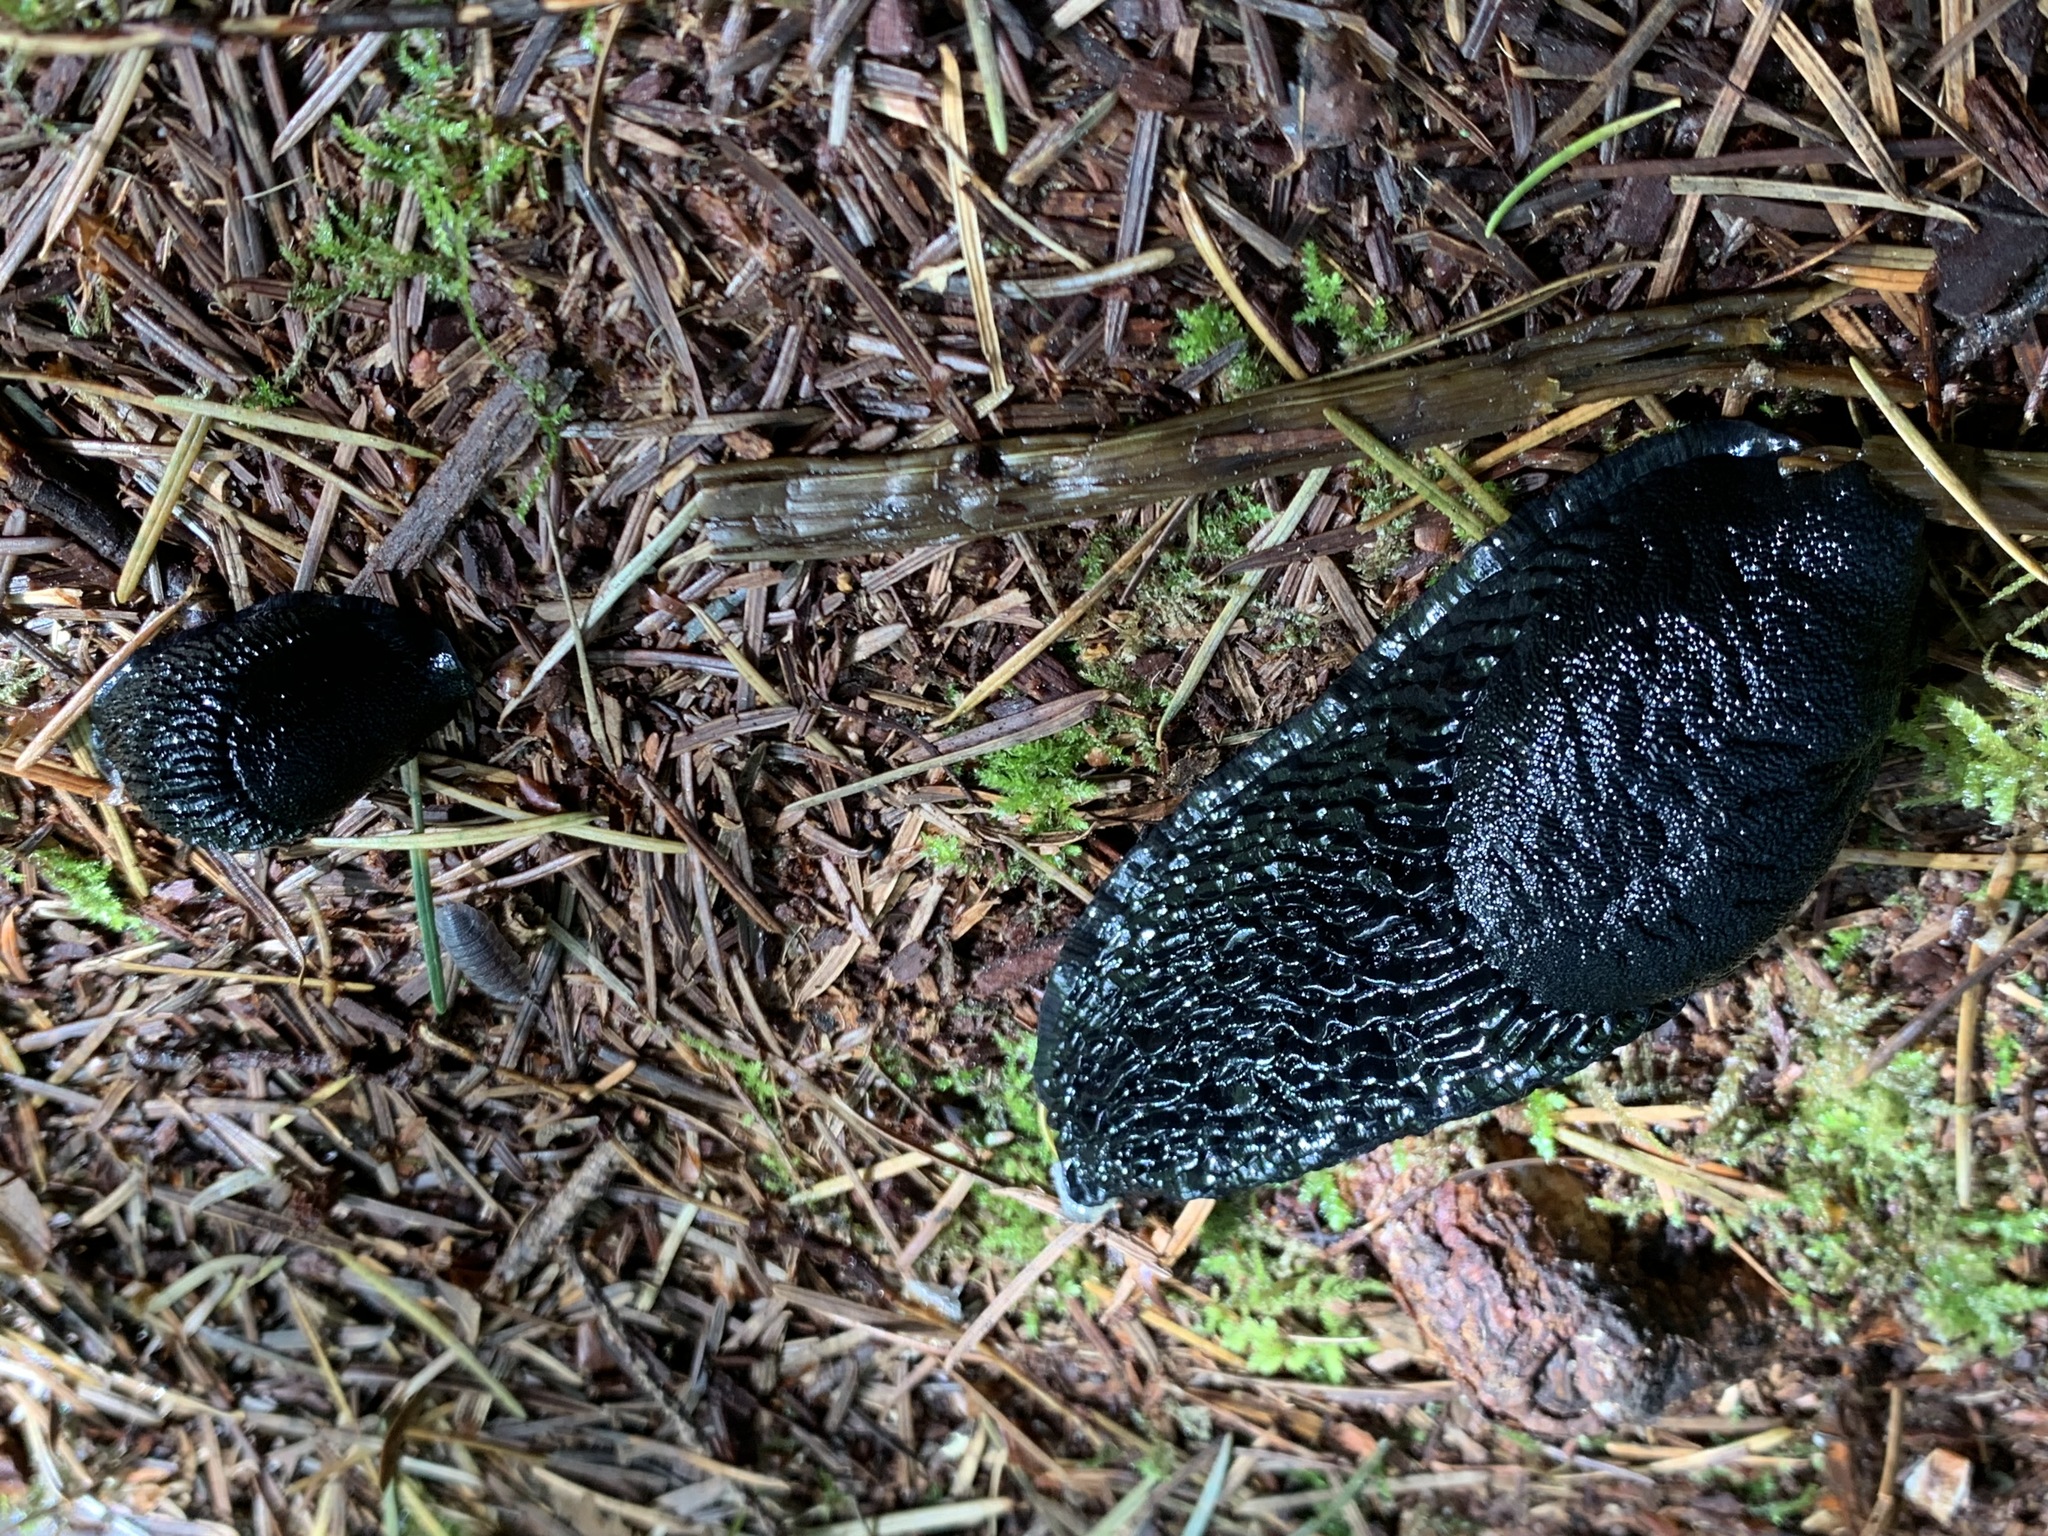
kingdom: Animalia
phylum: Mollusca
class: Gastropoda
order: Stylommatophora
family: Arionidae
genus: Arion
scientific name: Arion rufus
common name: Chocolate arion
